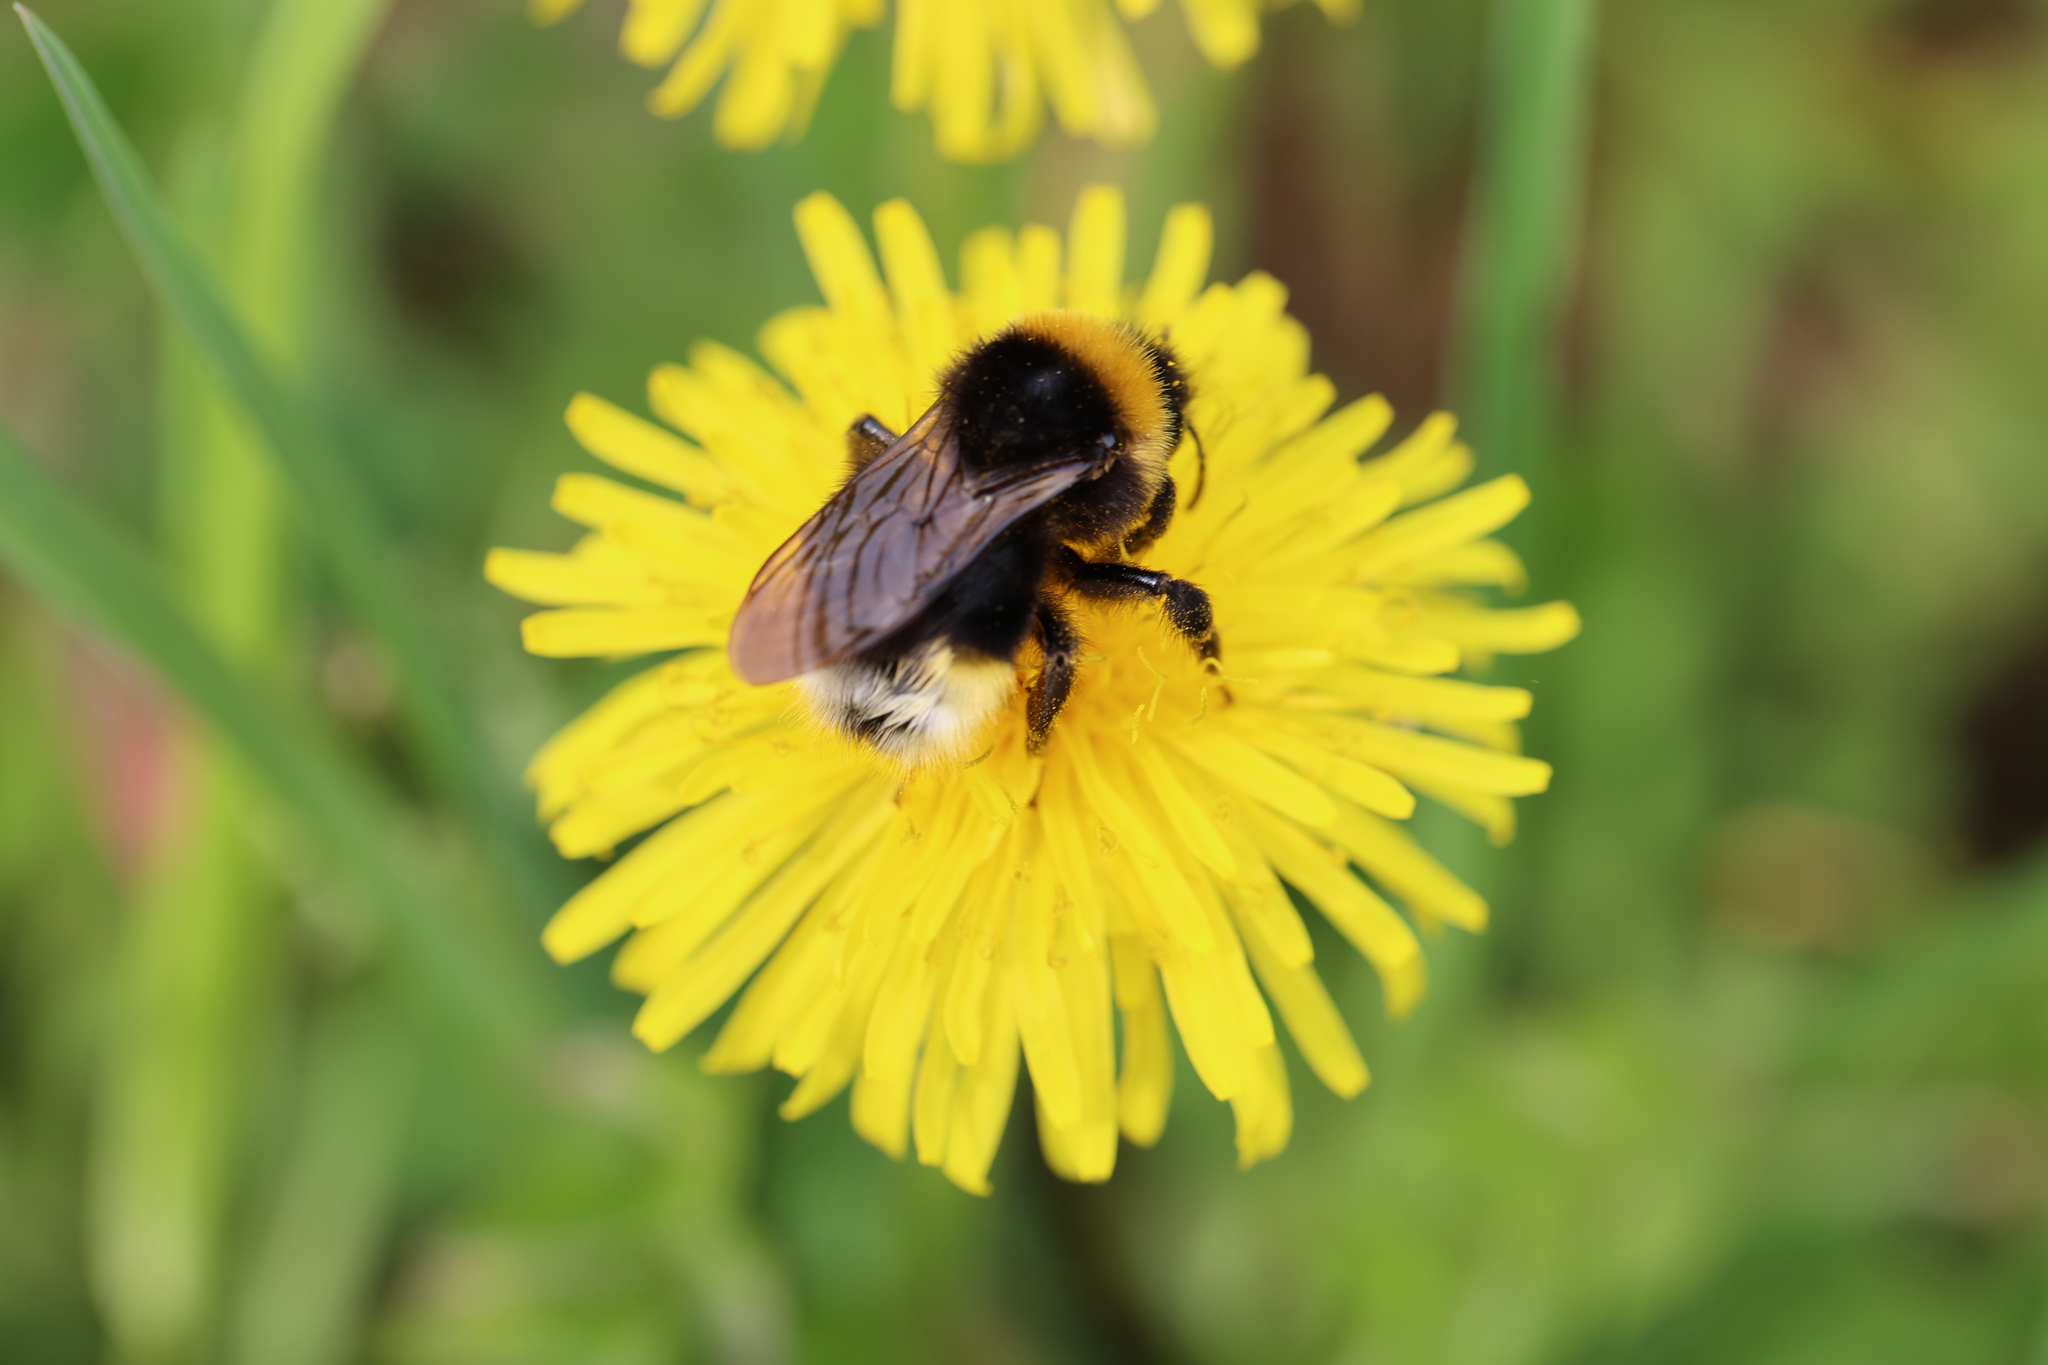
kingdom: Animalia
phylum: Arthropoda
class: Insecta
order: Hymenoptera
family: Apidae
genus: Bombus
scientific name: Bombus vestalis
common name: Vestal cuckoo bee
